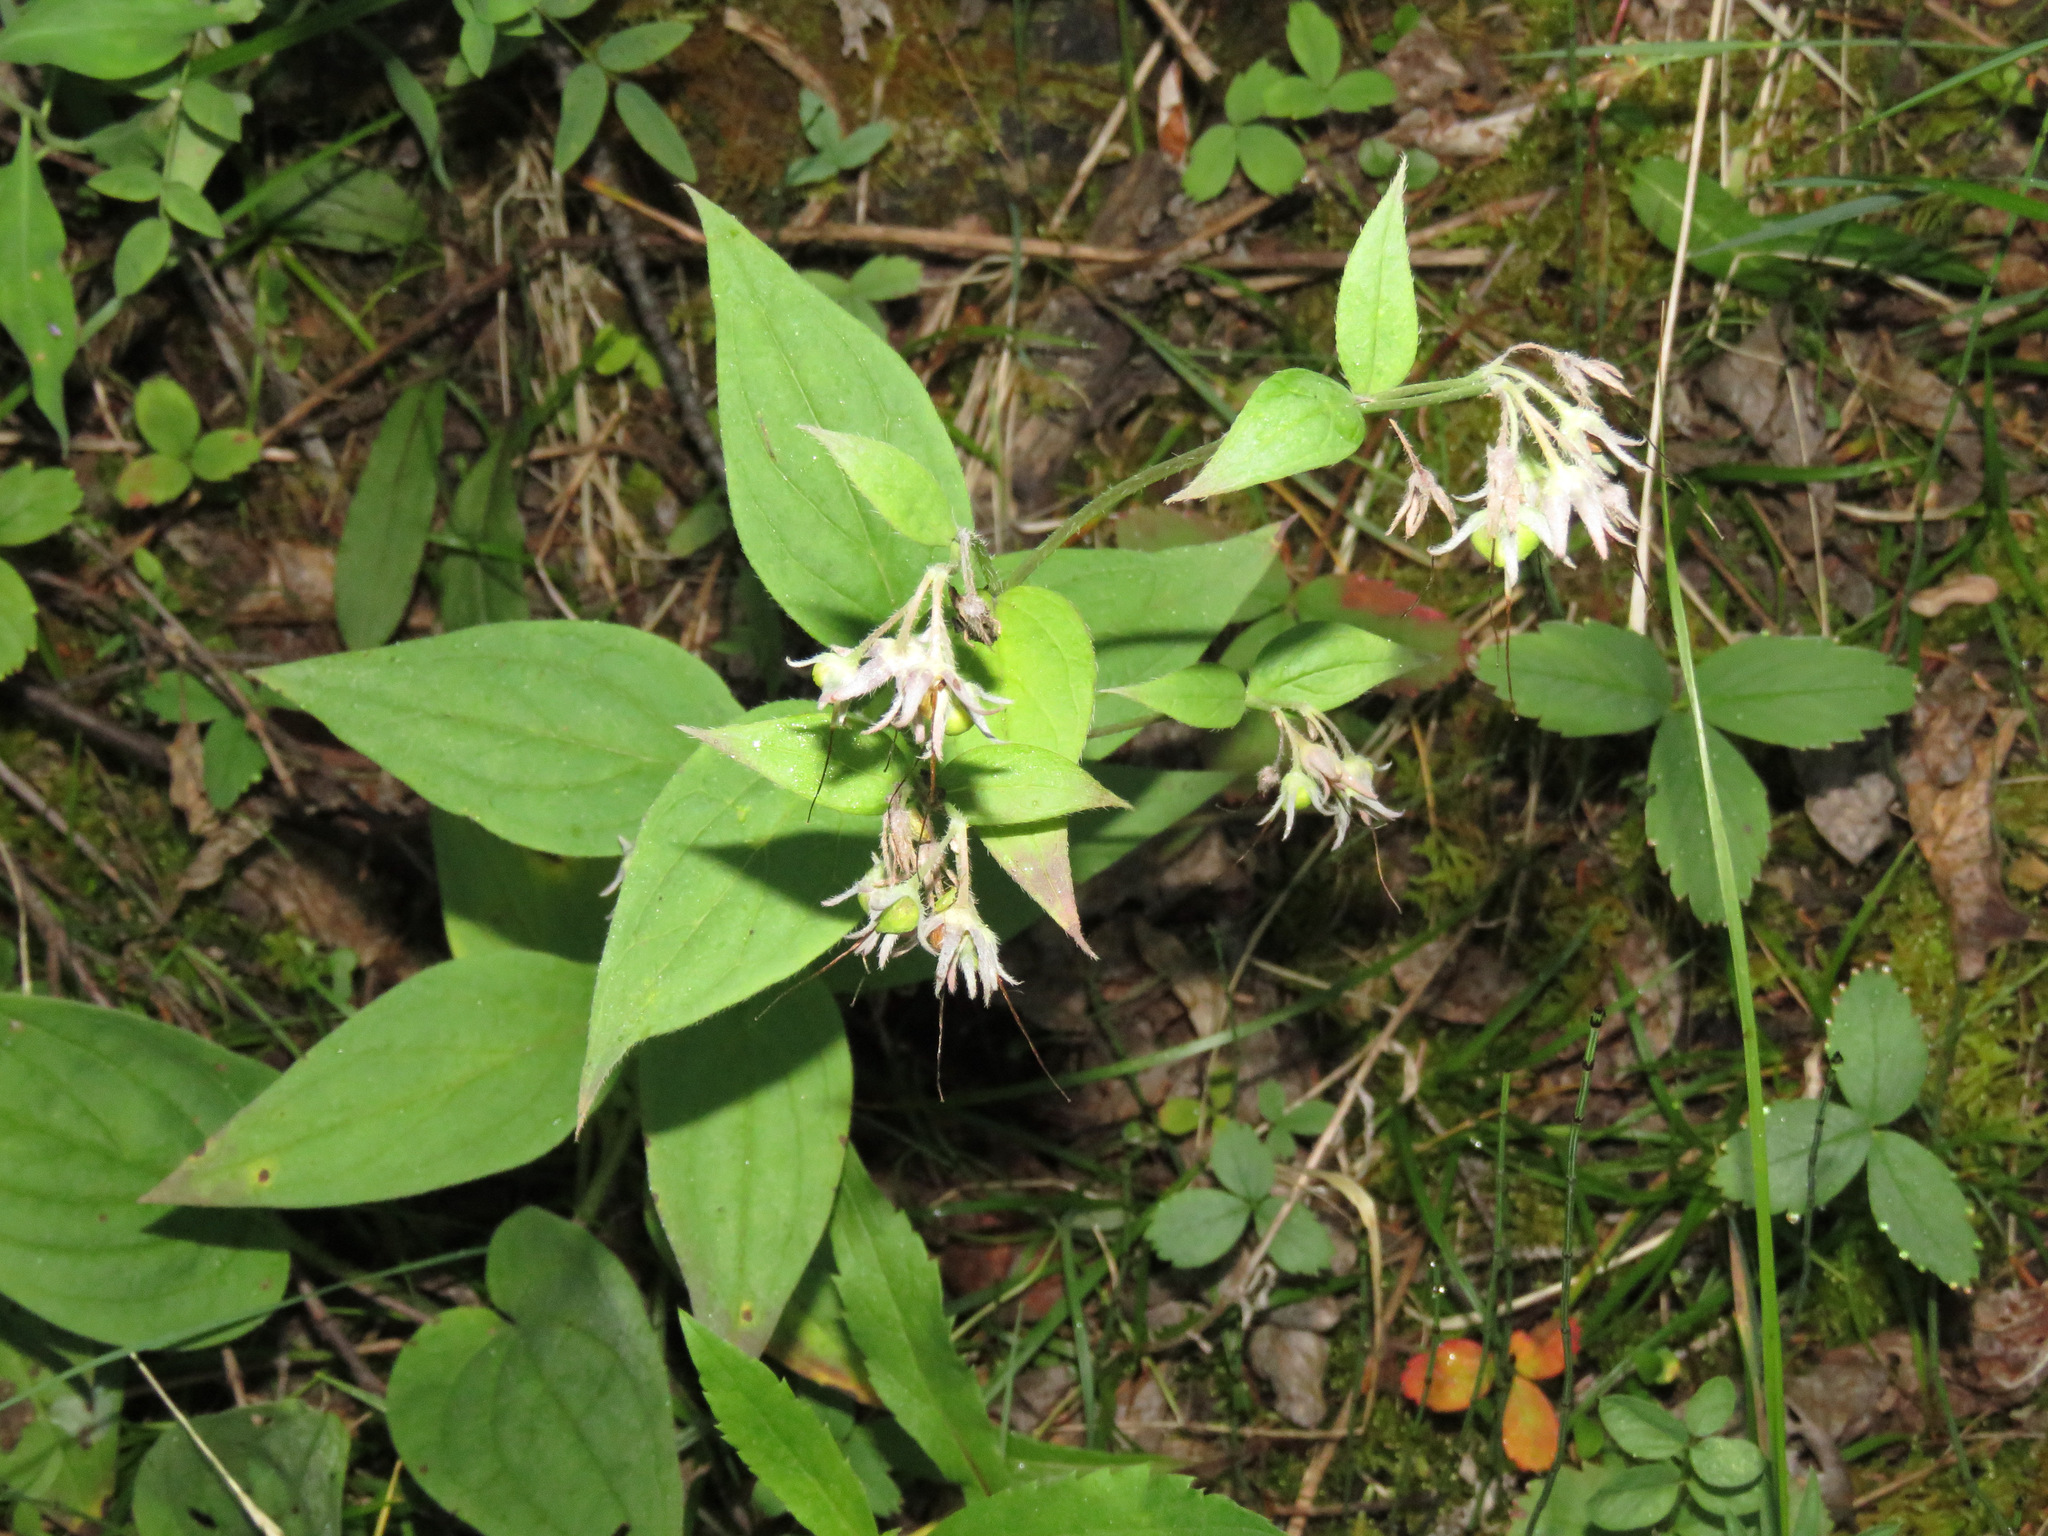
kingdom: Plantae
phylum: Tracheophyta
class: Magnoliopsida
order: Boraginales
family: Boraginaceae
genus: Mertensia
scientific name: Mertensia paniculata
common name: Panicled bluebells
